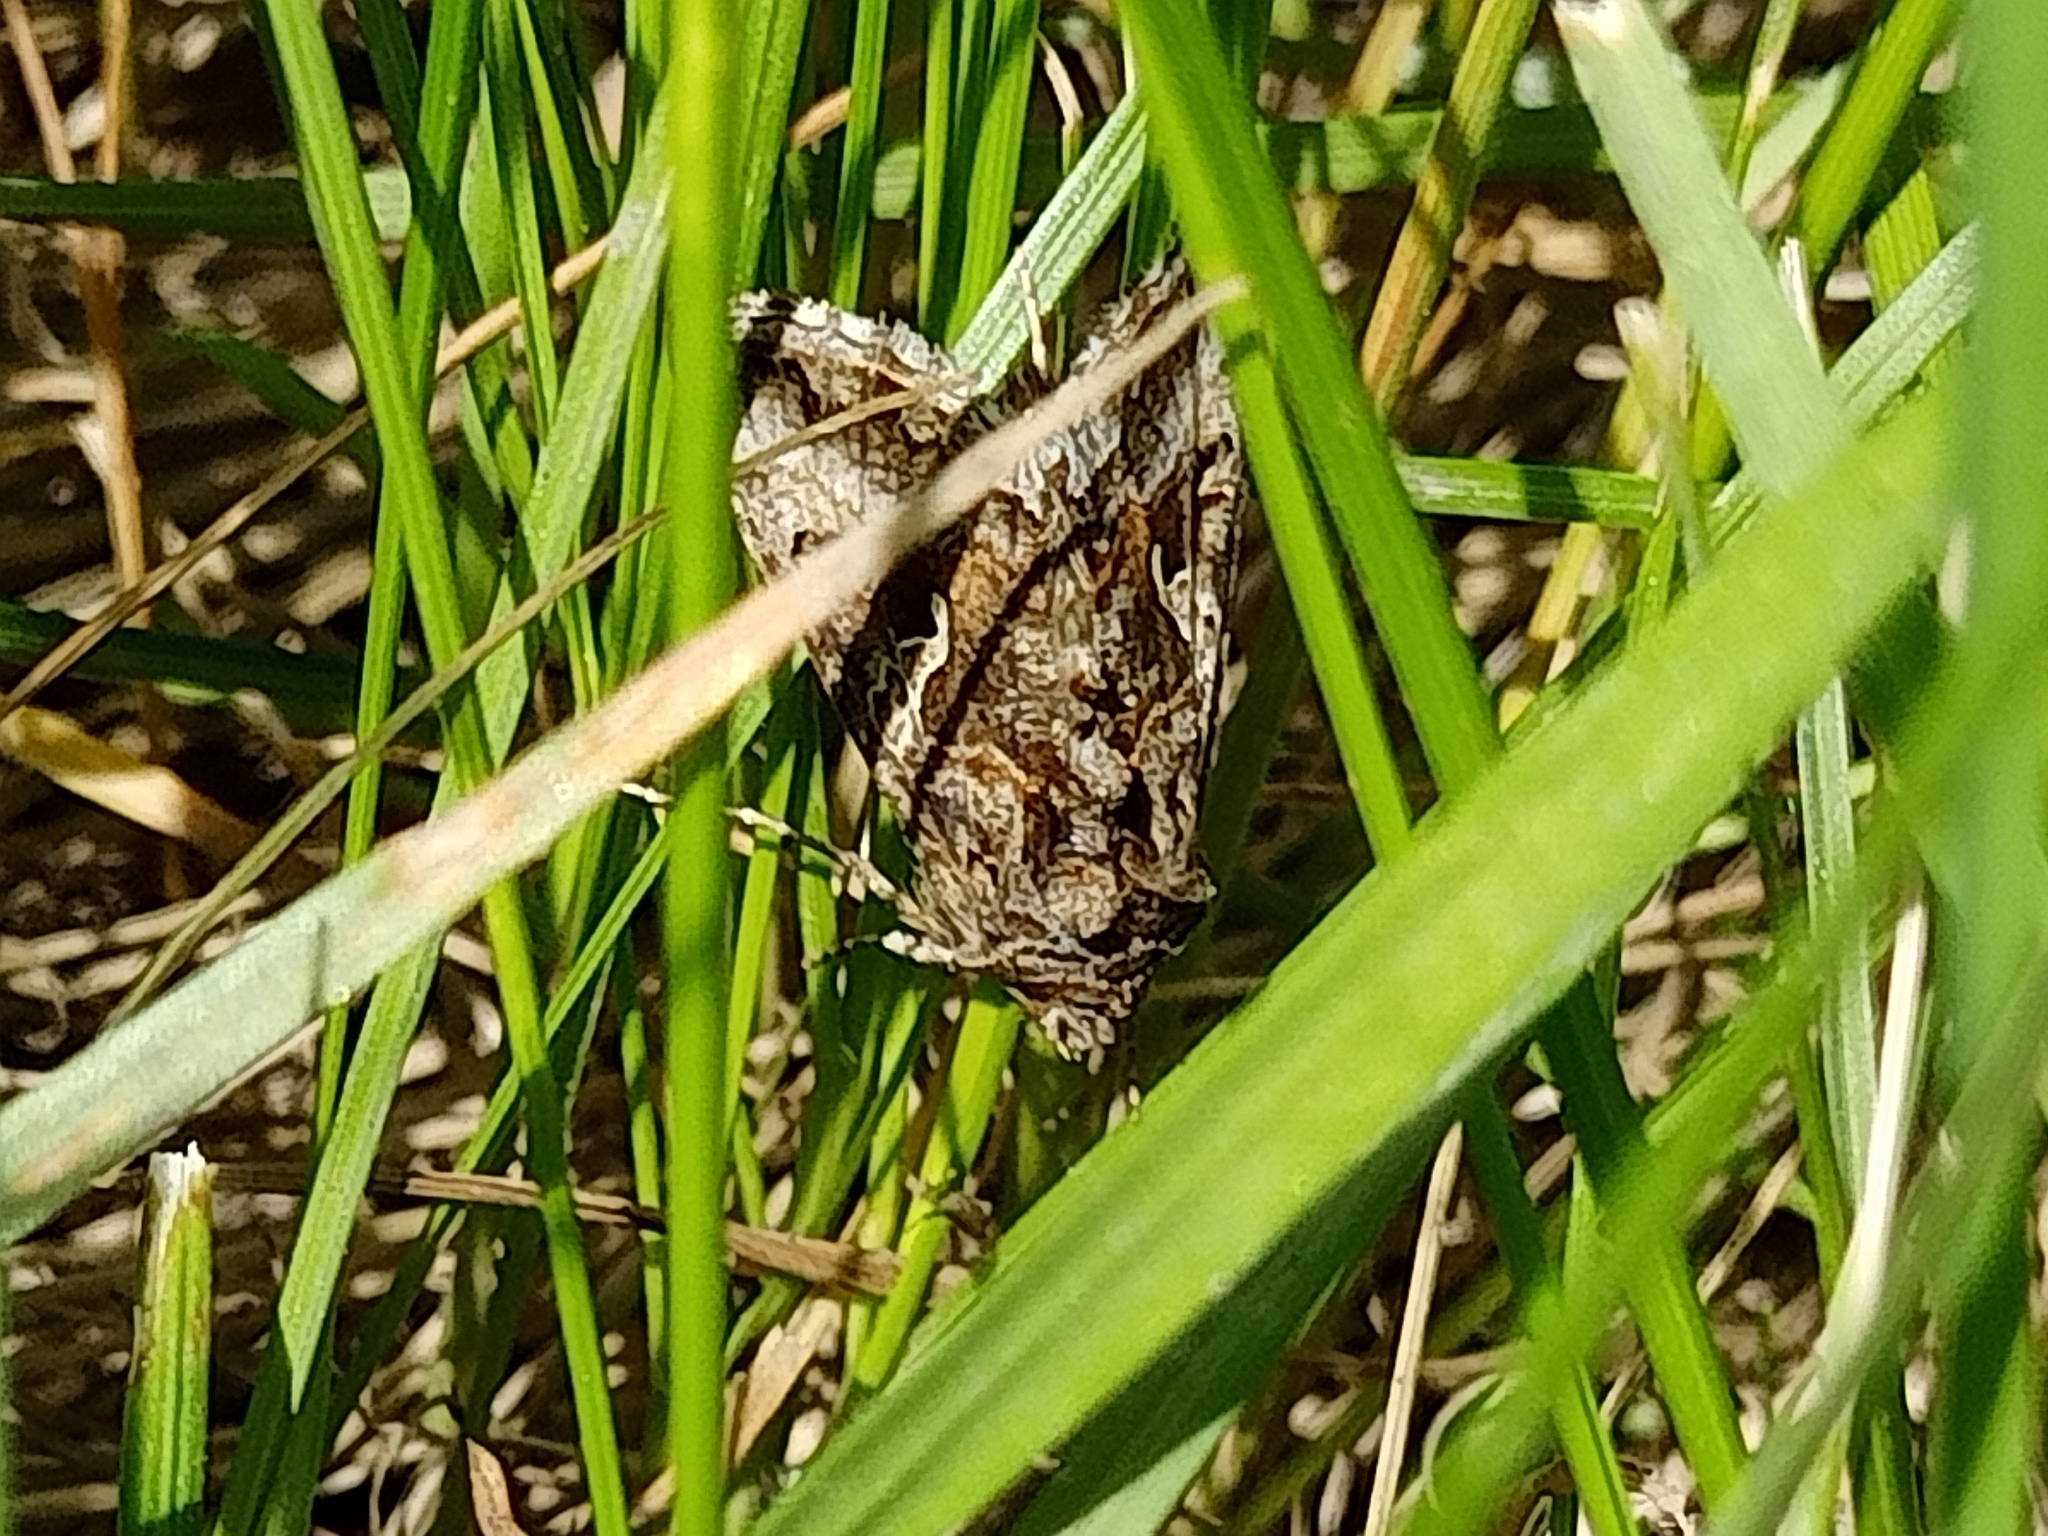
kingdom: Animalia
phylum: Arthropoda
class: Insecta
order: Lepidoptera
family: Noctuidae
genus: Autographa
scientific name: Autographa gamma
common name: Silver y
